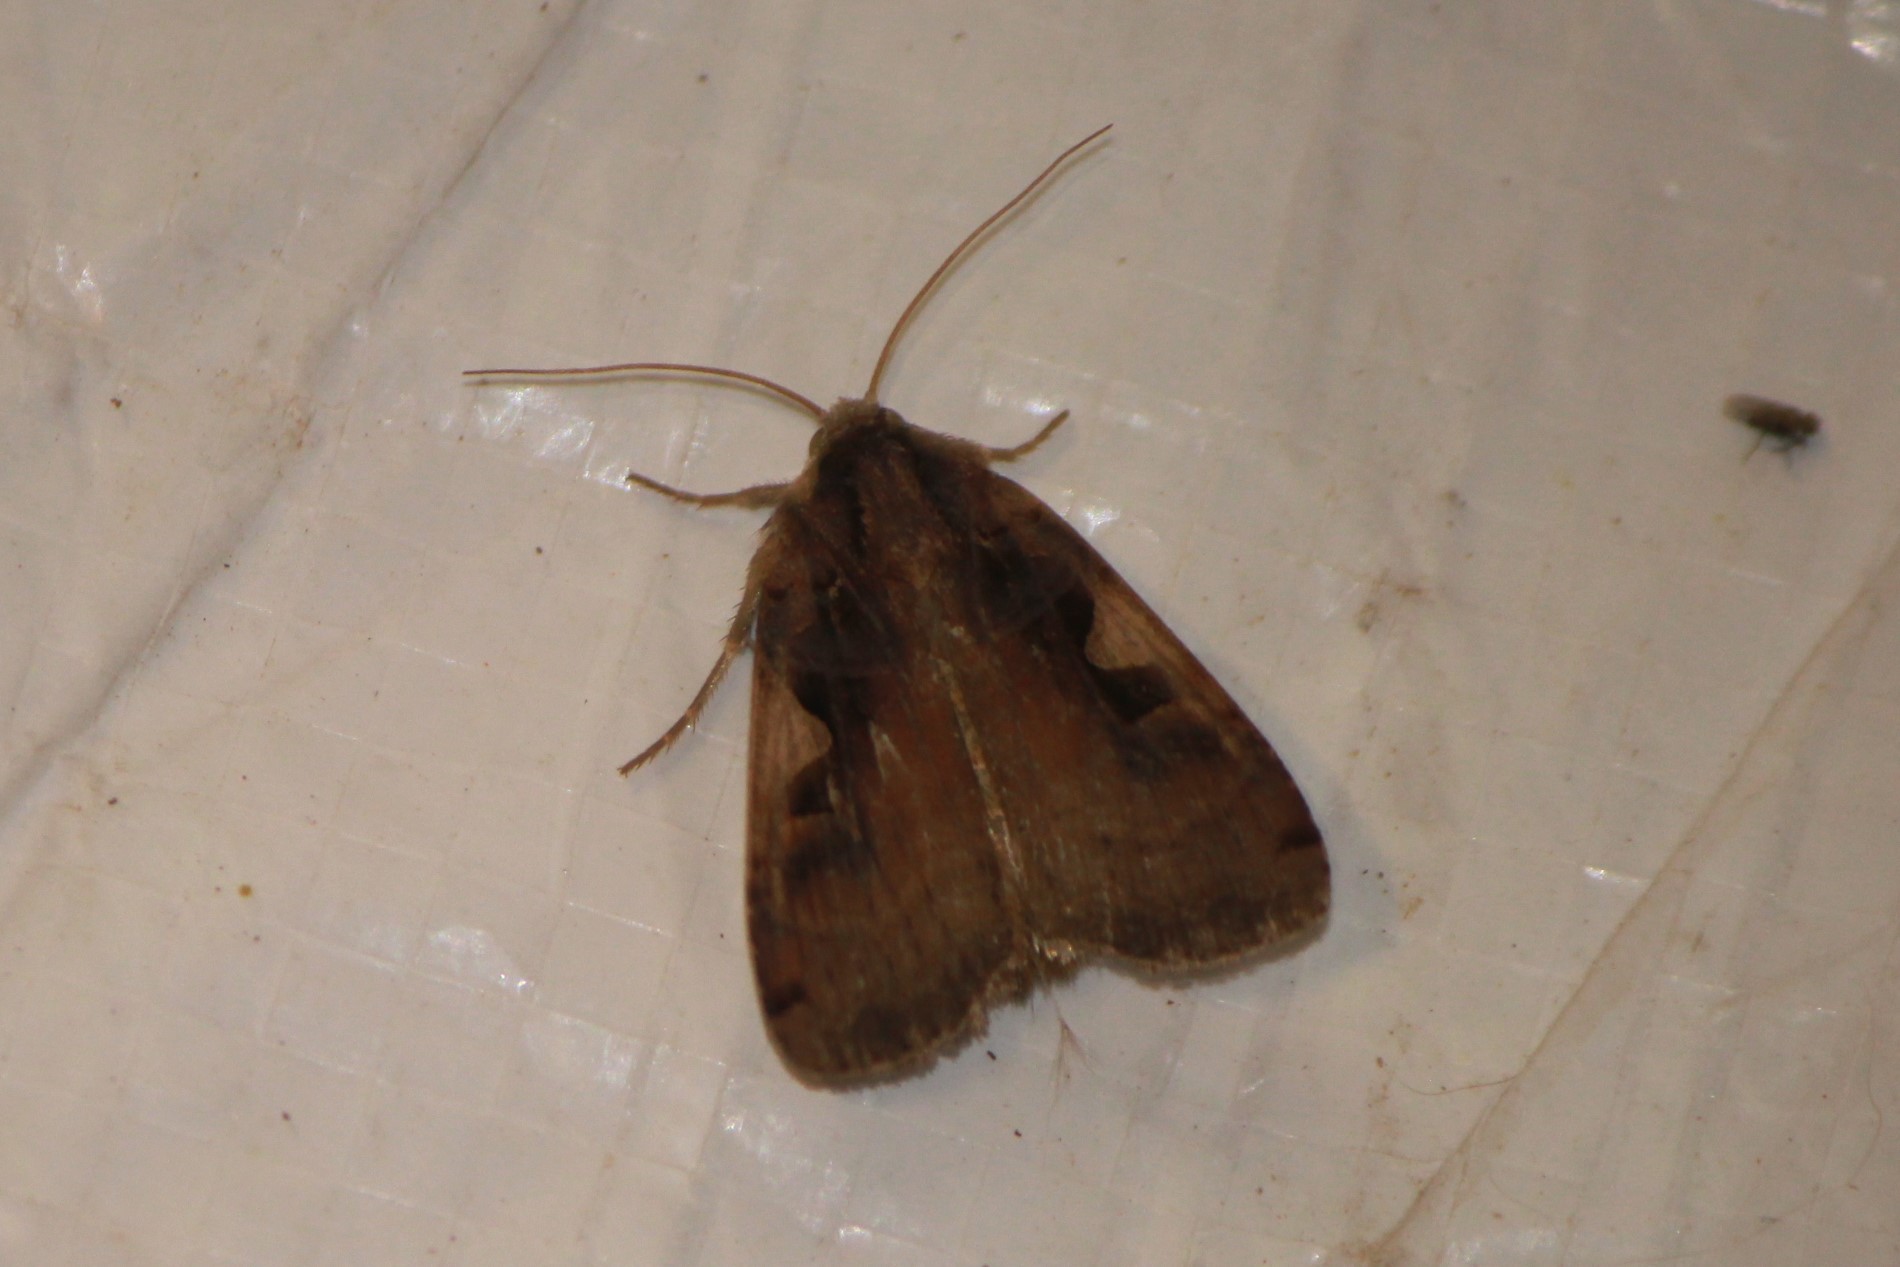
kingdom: Animalia
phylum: Arthropoda
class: Insecta
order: Lepidoptera
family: Noctuidae
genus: Xestia
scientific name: Xestia dolosa
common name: Cutworm moth
